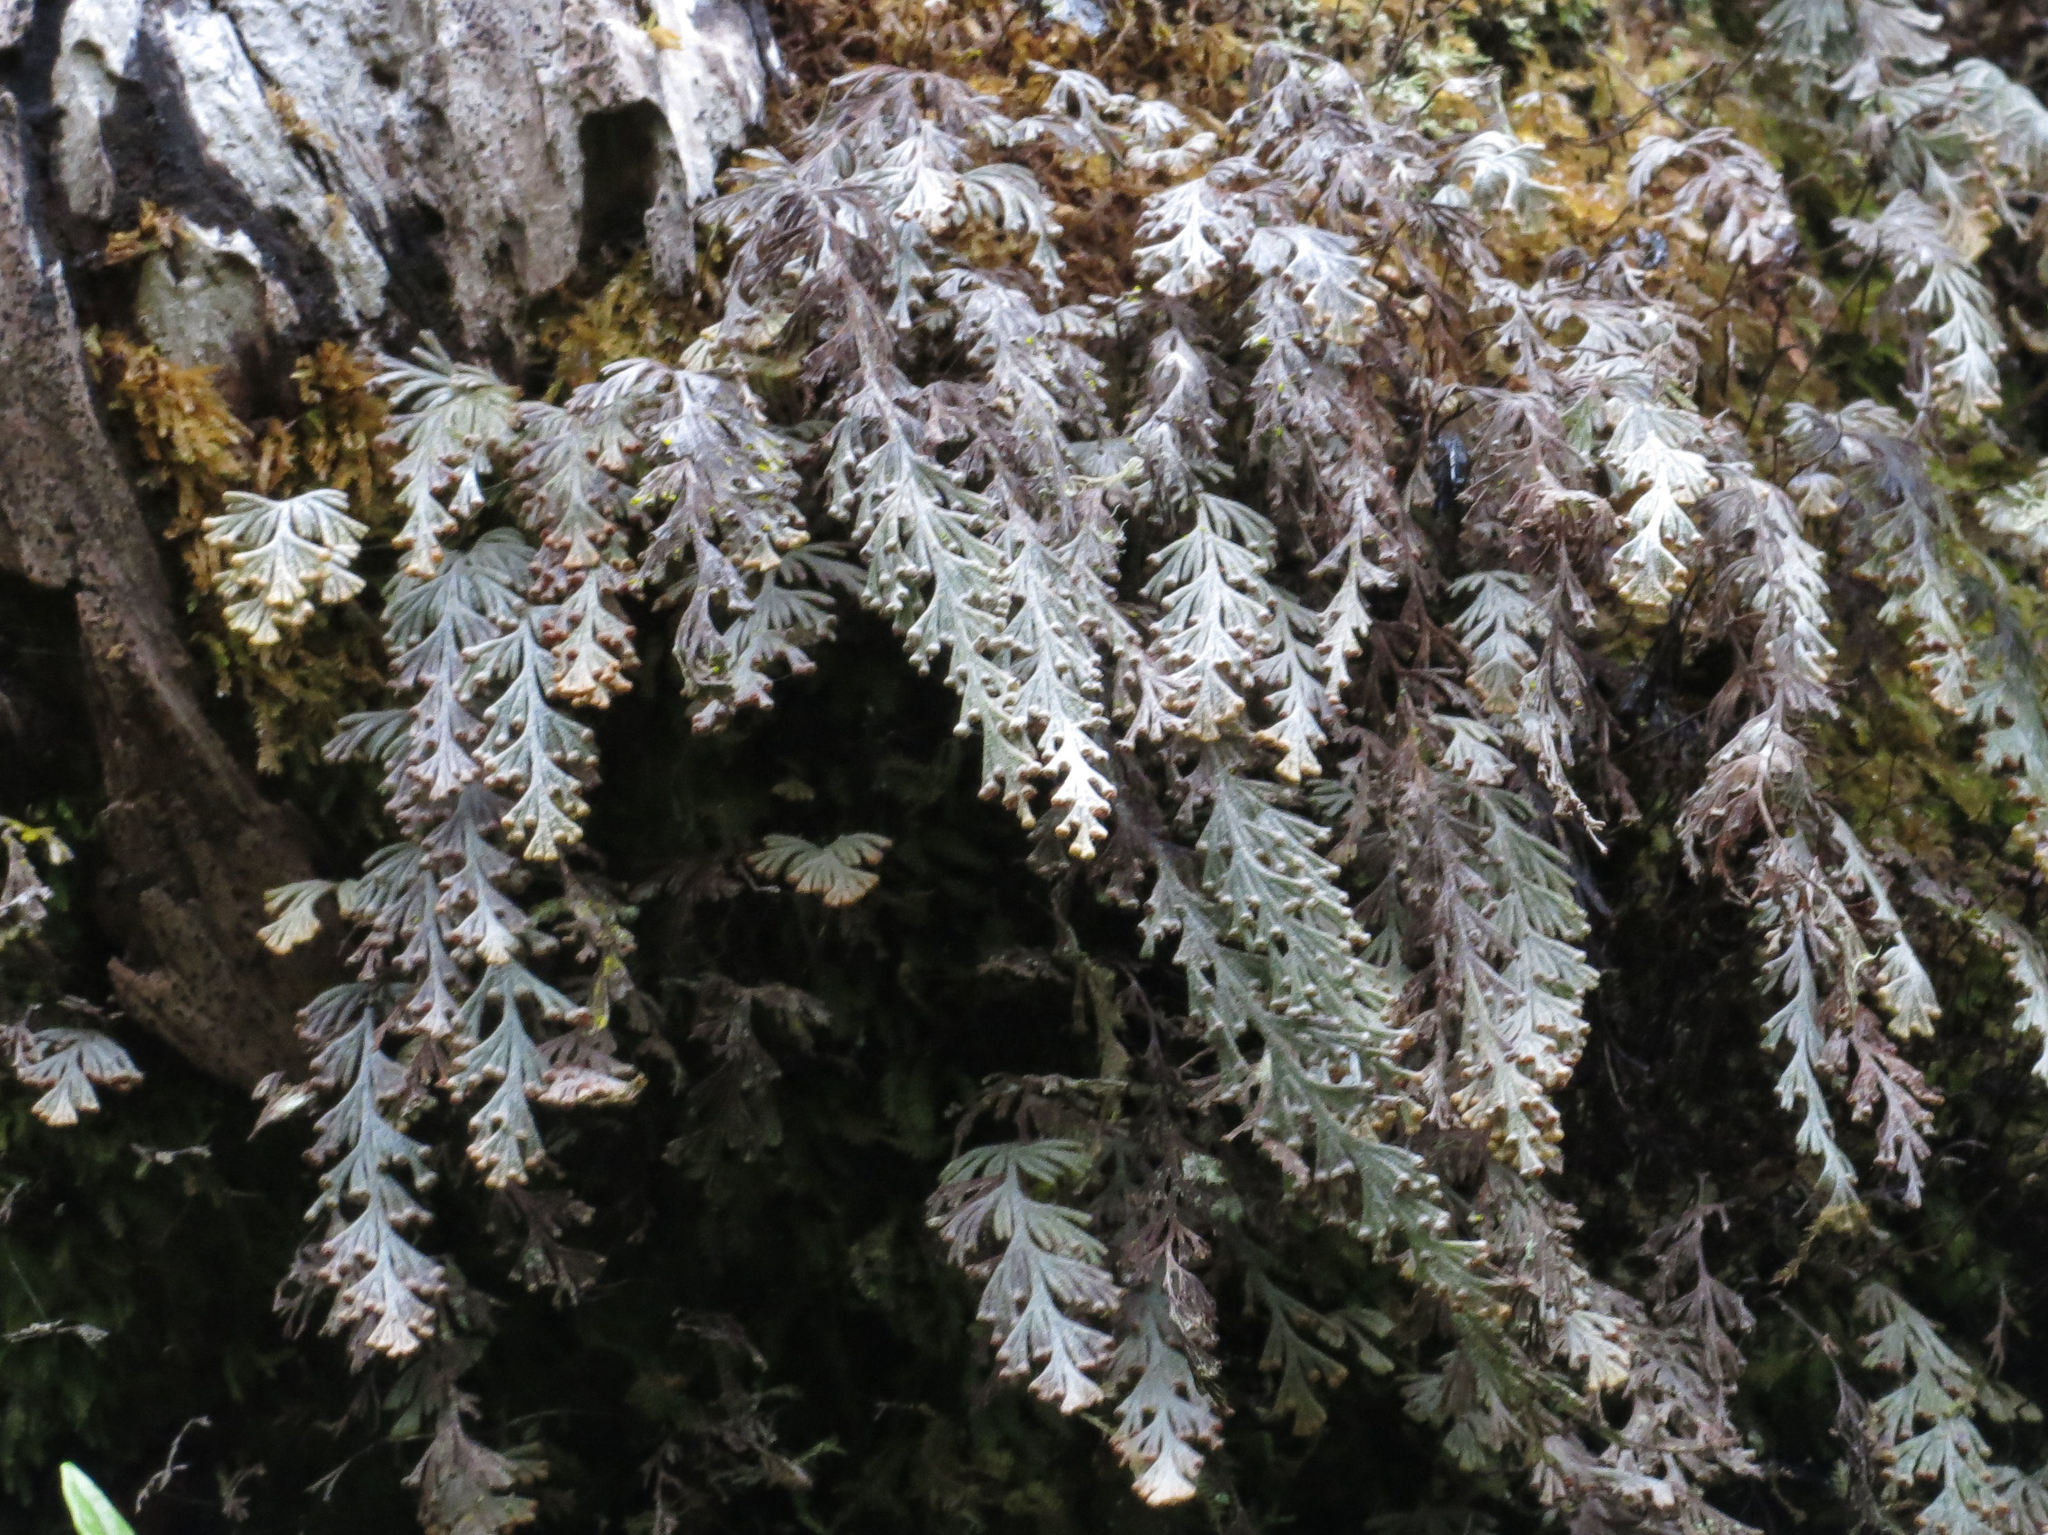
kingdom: Plantae
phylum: Tracheophyta
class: Polypodiopsida
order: Hymenophyllales
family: Hymenophyllaceae
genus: Hymenophyllum
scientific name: Hymenophyllum malingii
